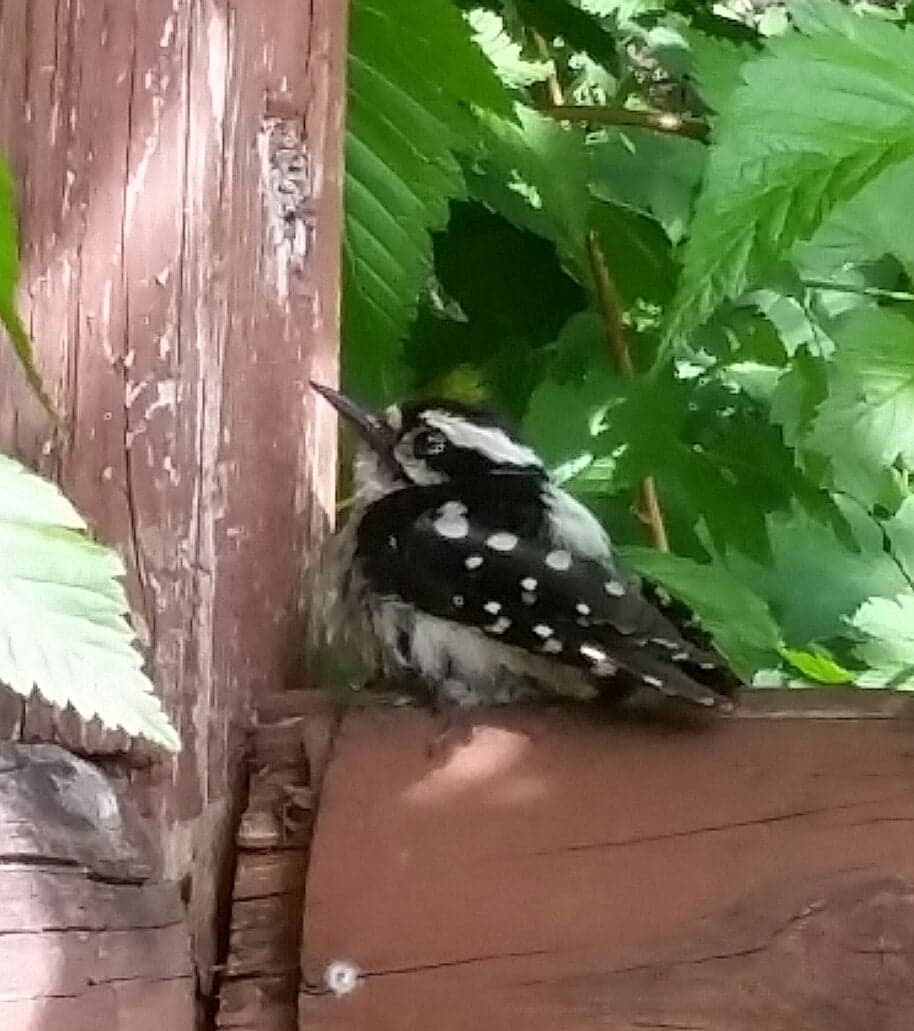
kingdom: Animalia
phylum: Chordata
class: Aves
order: Piciformes
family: Picidae
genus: Leuconotopicus
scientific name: Leuconotopicus villosus
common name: Hairy woodpecker
